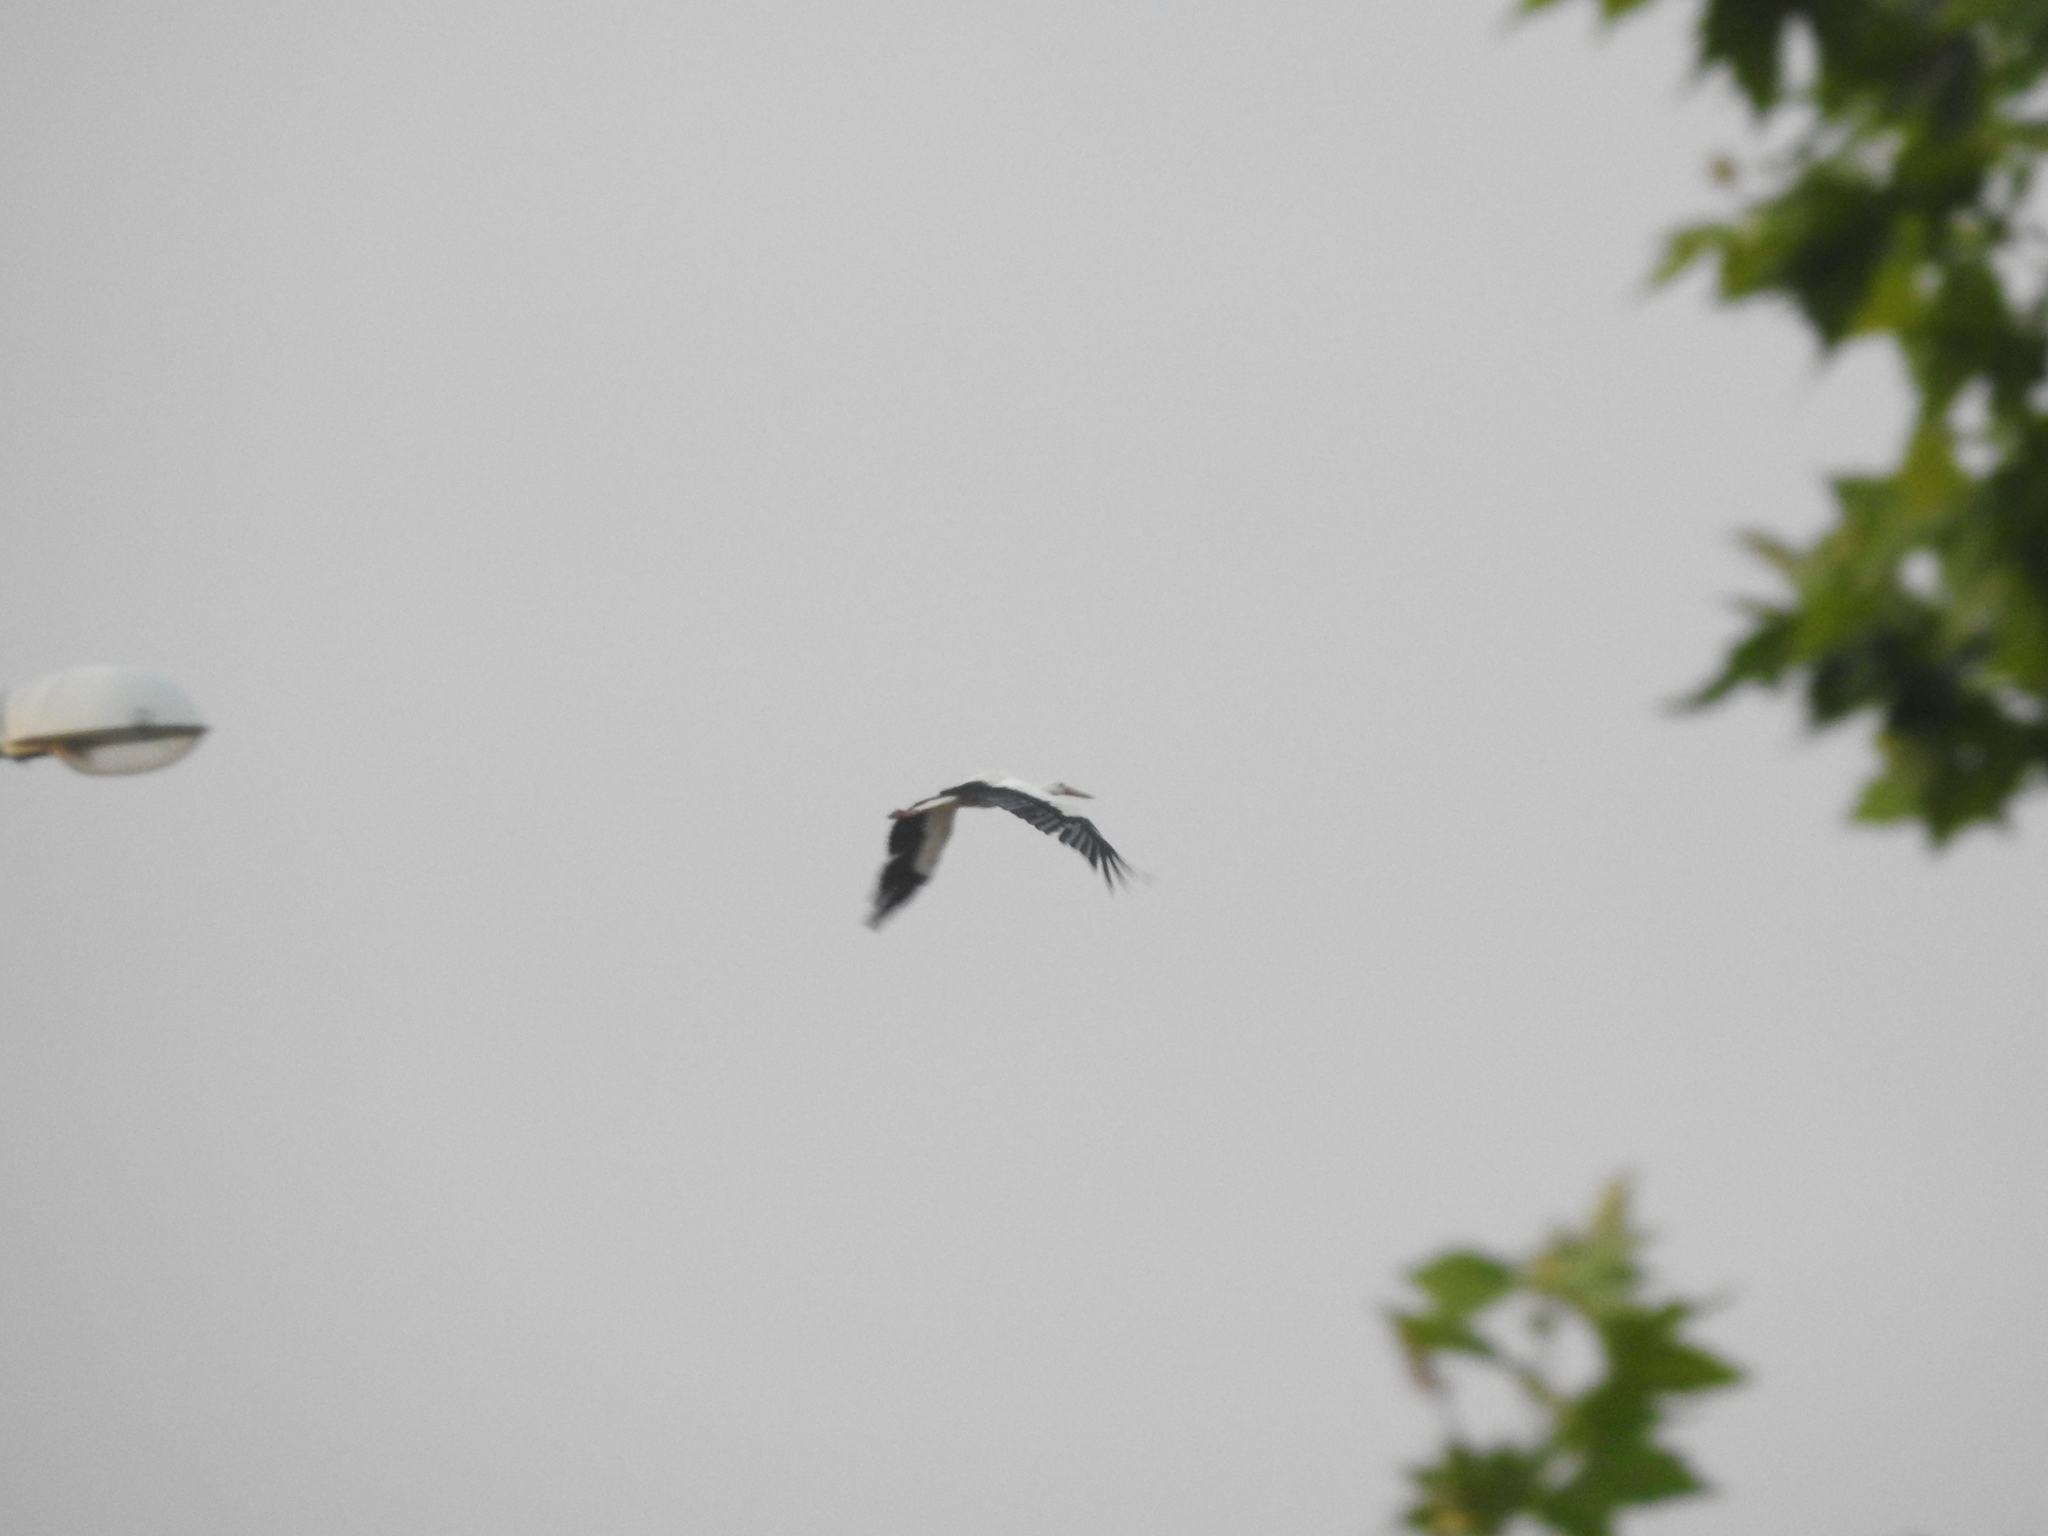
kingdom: Animalia
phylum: Chordata
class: Aves
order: Ciconiiformes
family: Ciconiidae
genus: Ciconia
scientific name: Ciconia ciconia
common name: White stork
